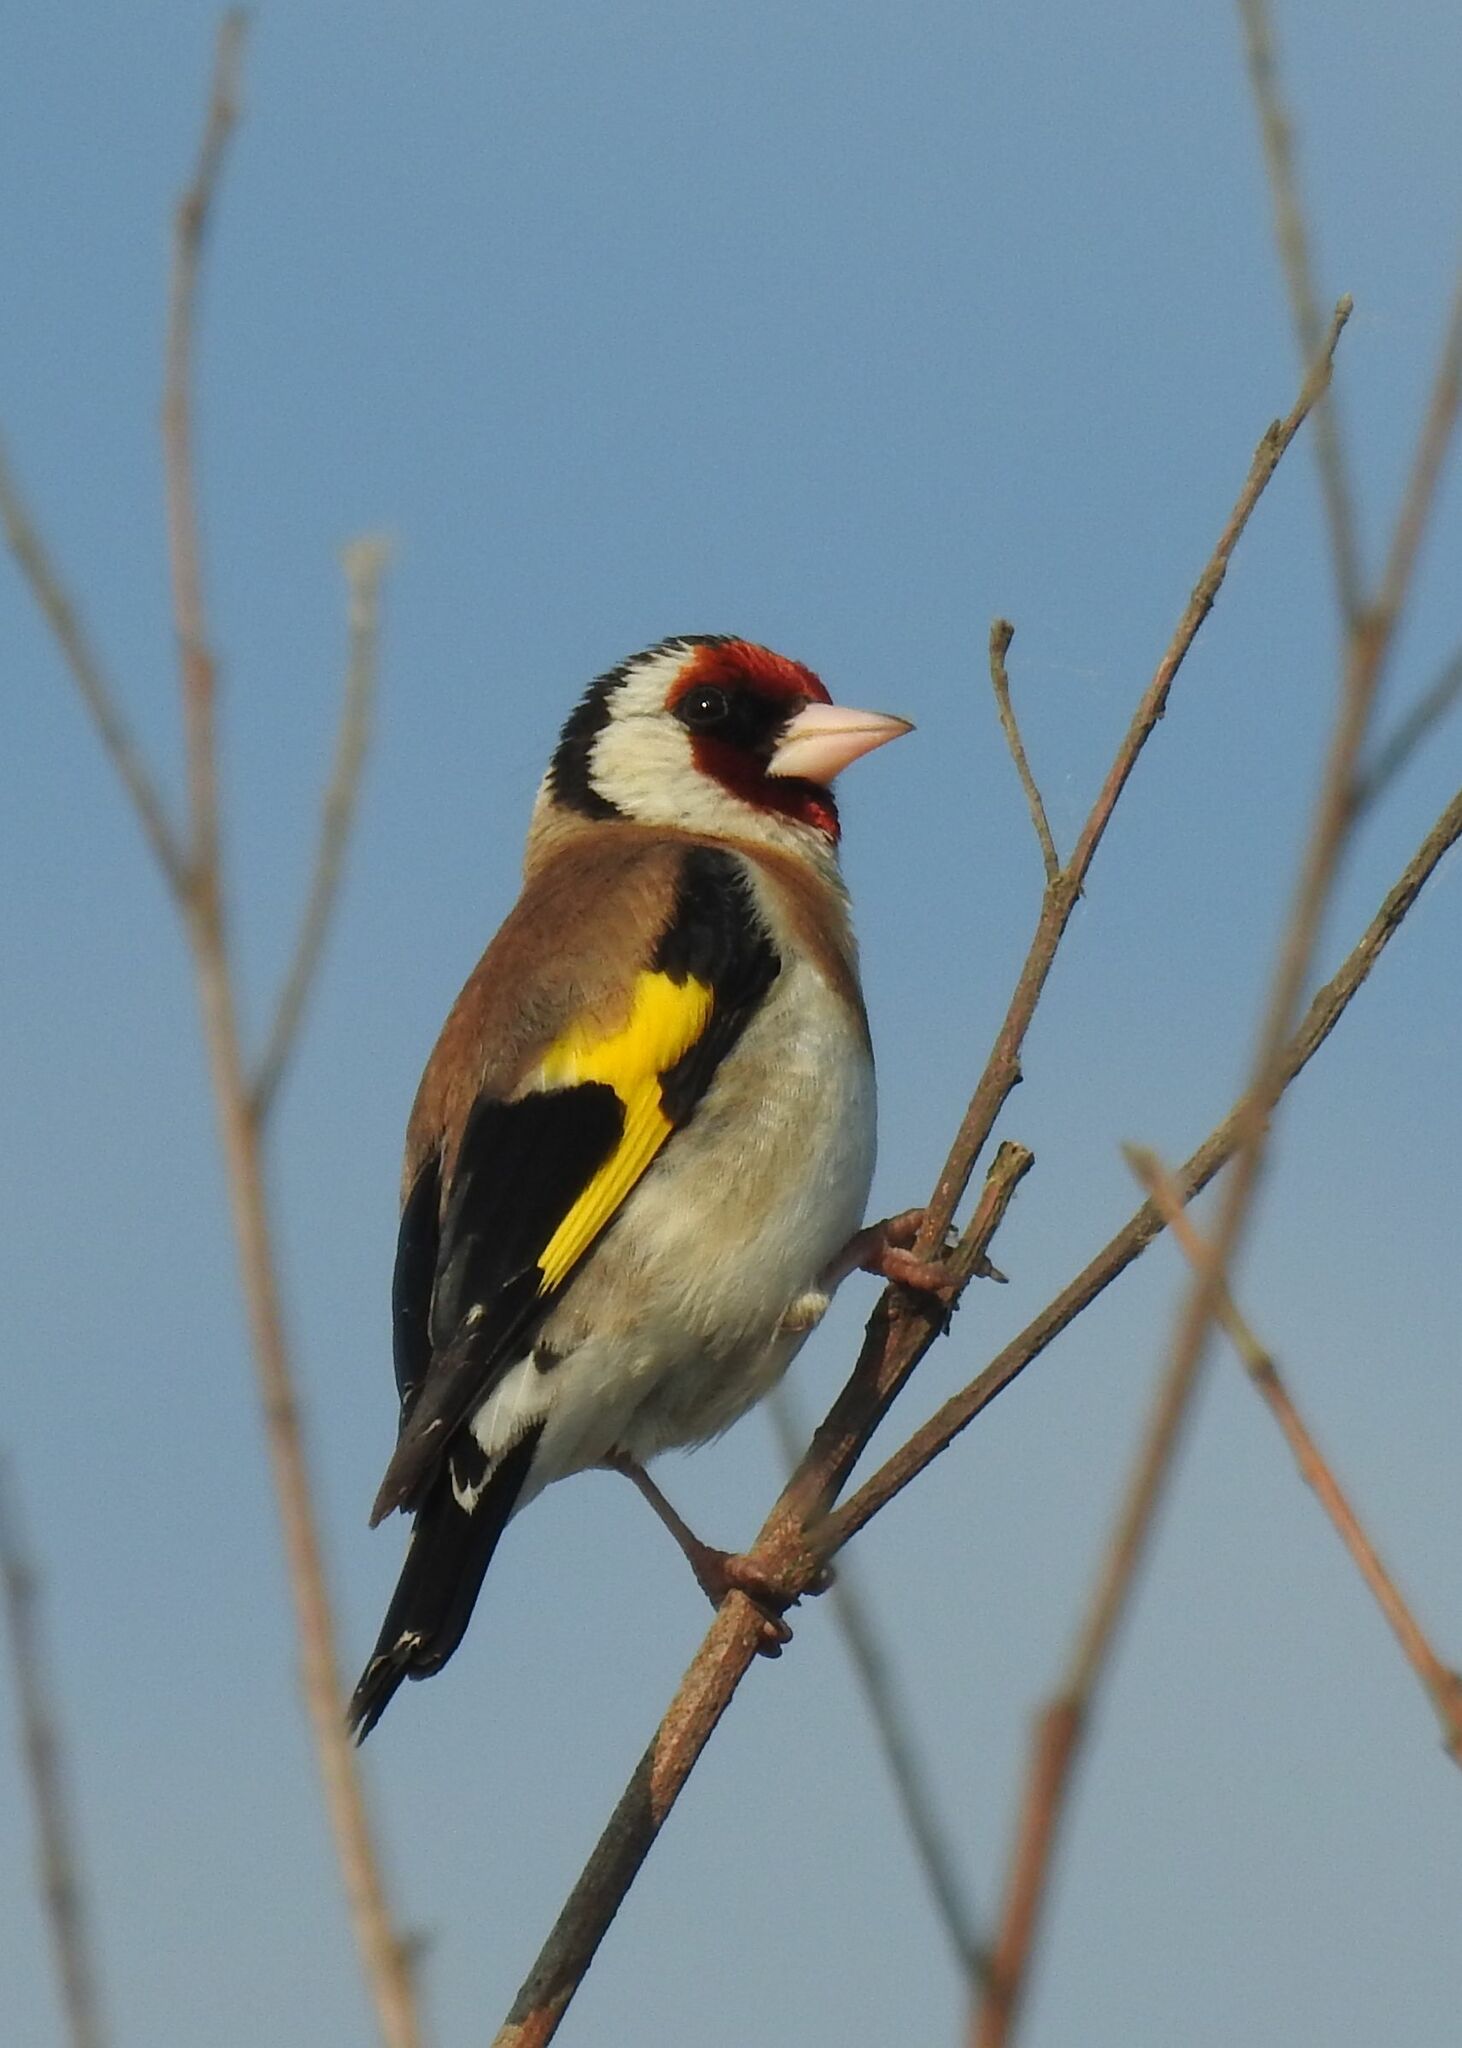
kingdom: Animalia
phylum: Chordata
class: Aves
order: Passeriformes
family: Fringillidae
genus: Carduelis
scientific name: Carduelis carduelis
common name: European goldfinch
